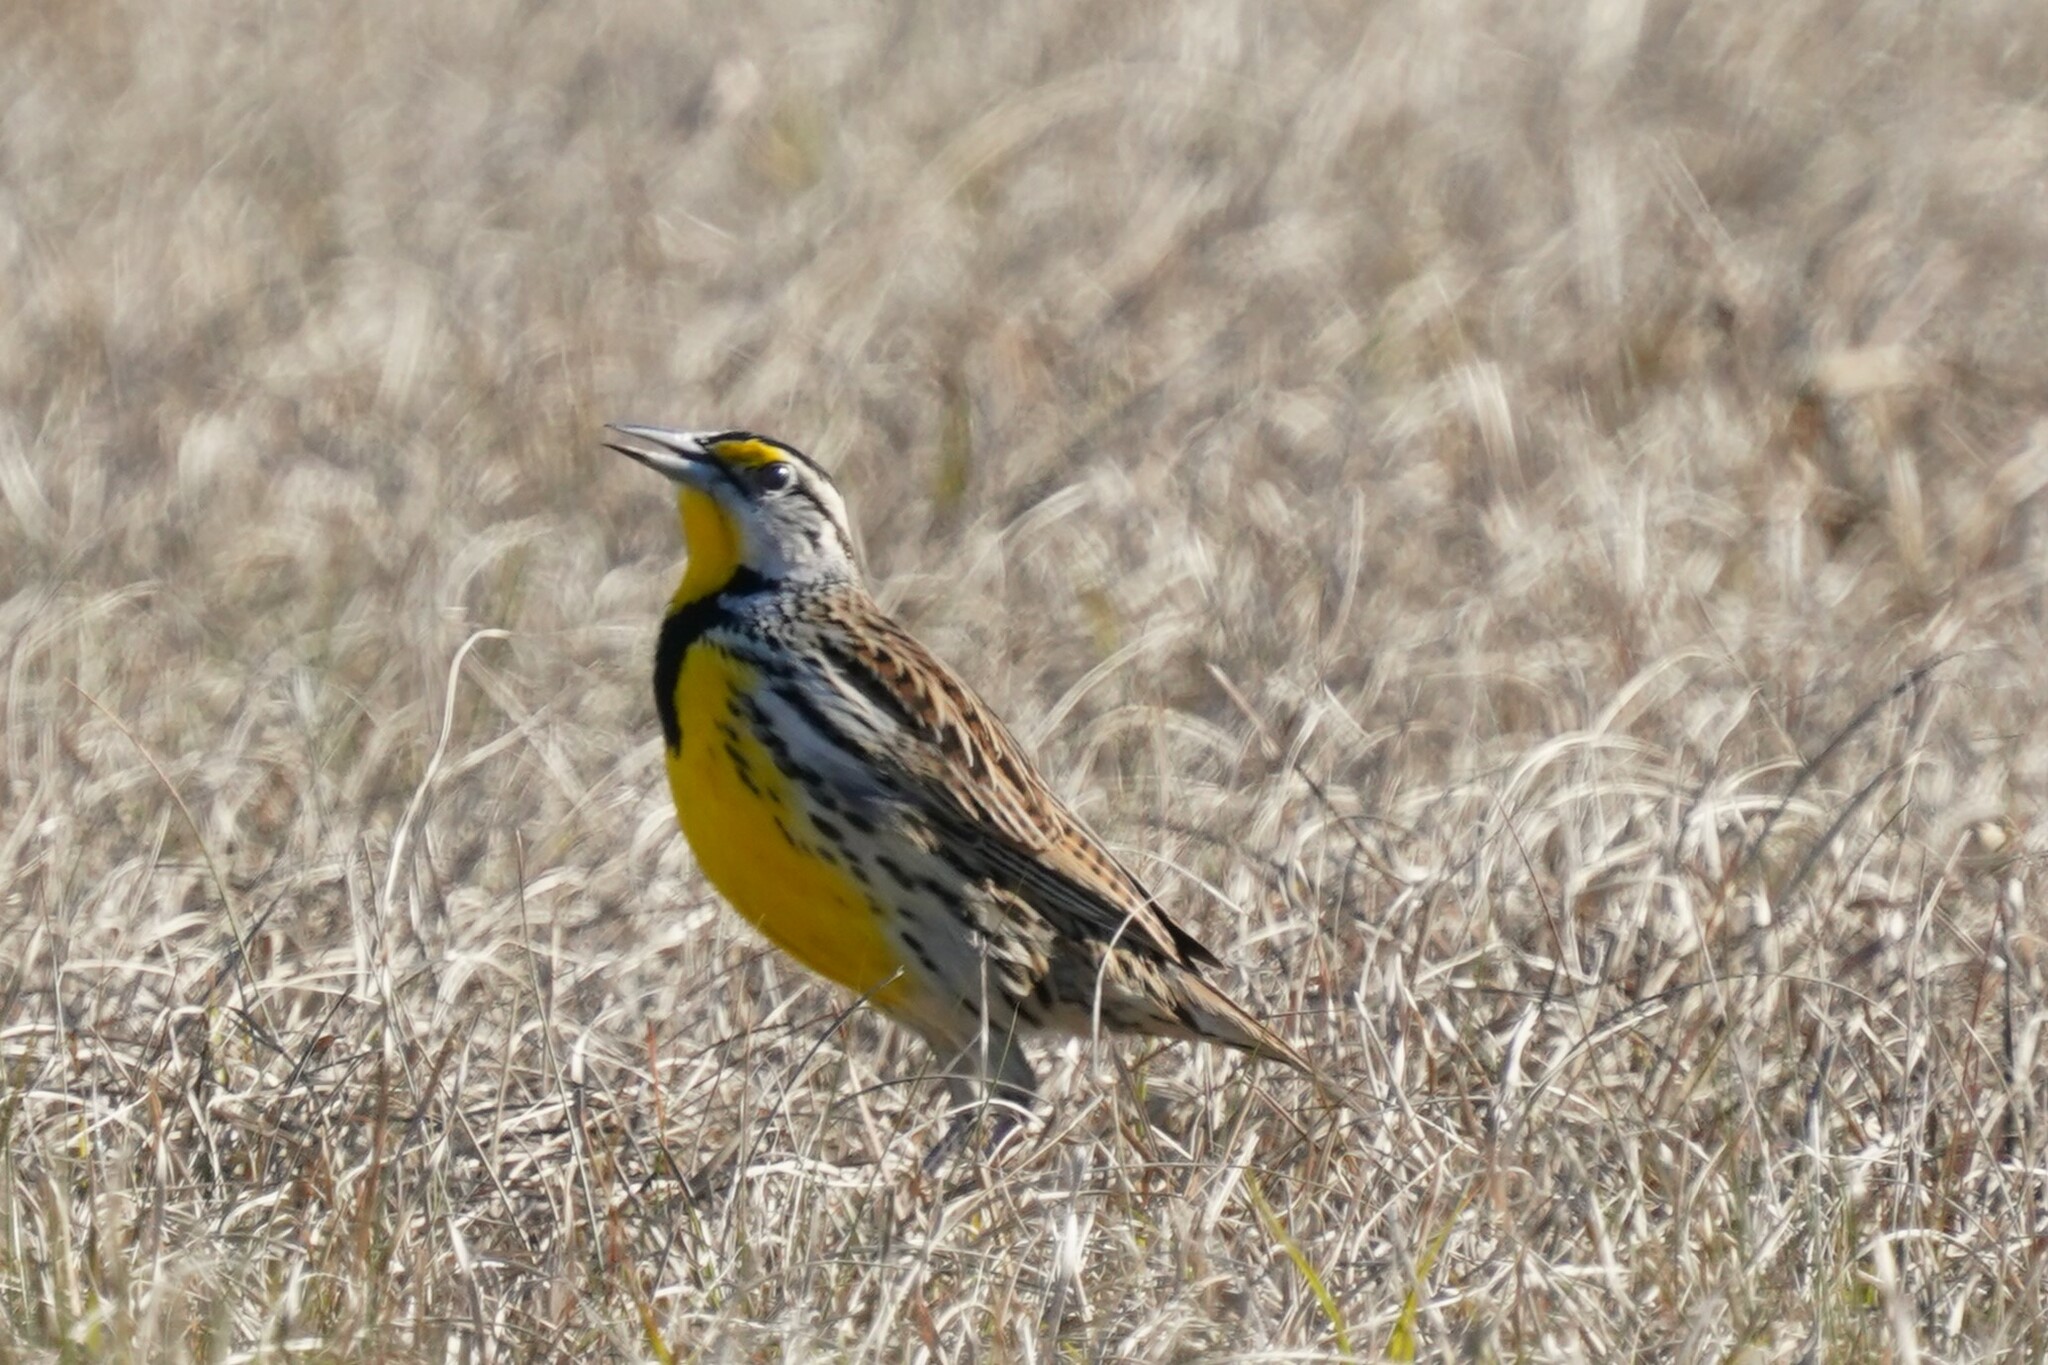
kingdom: Animalia
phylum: Chordata
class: Aves
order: Passeriformes
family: Icteridae
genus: Sturnella
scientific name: Sturnella magna
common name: Eastern meadowlark
